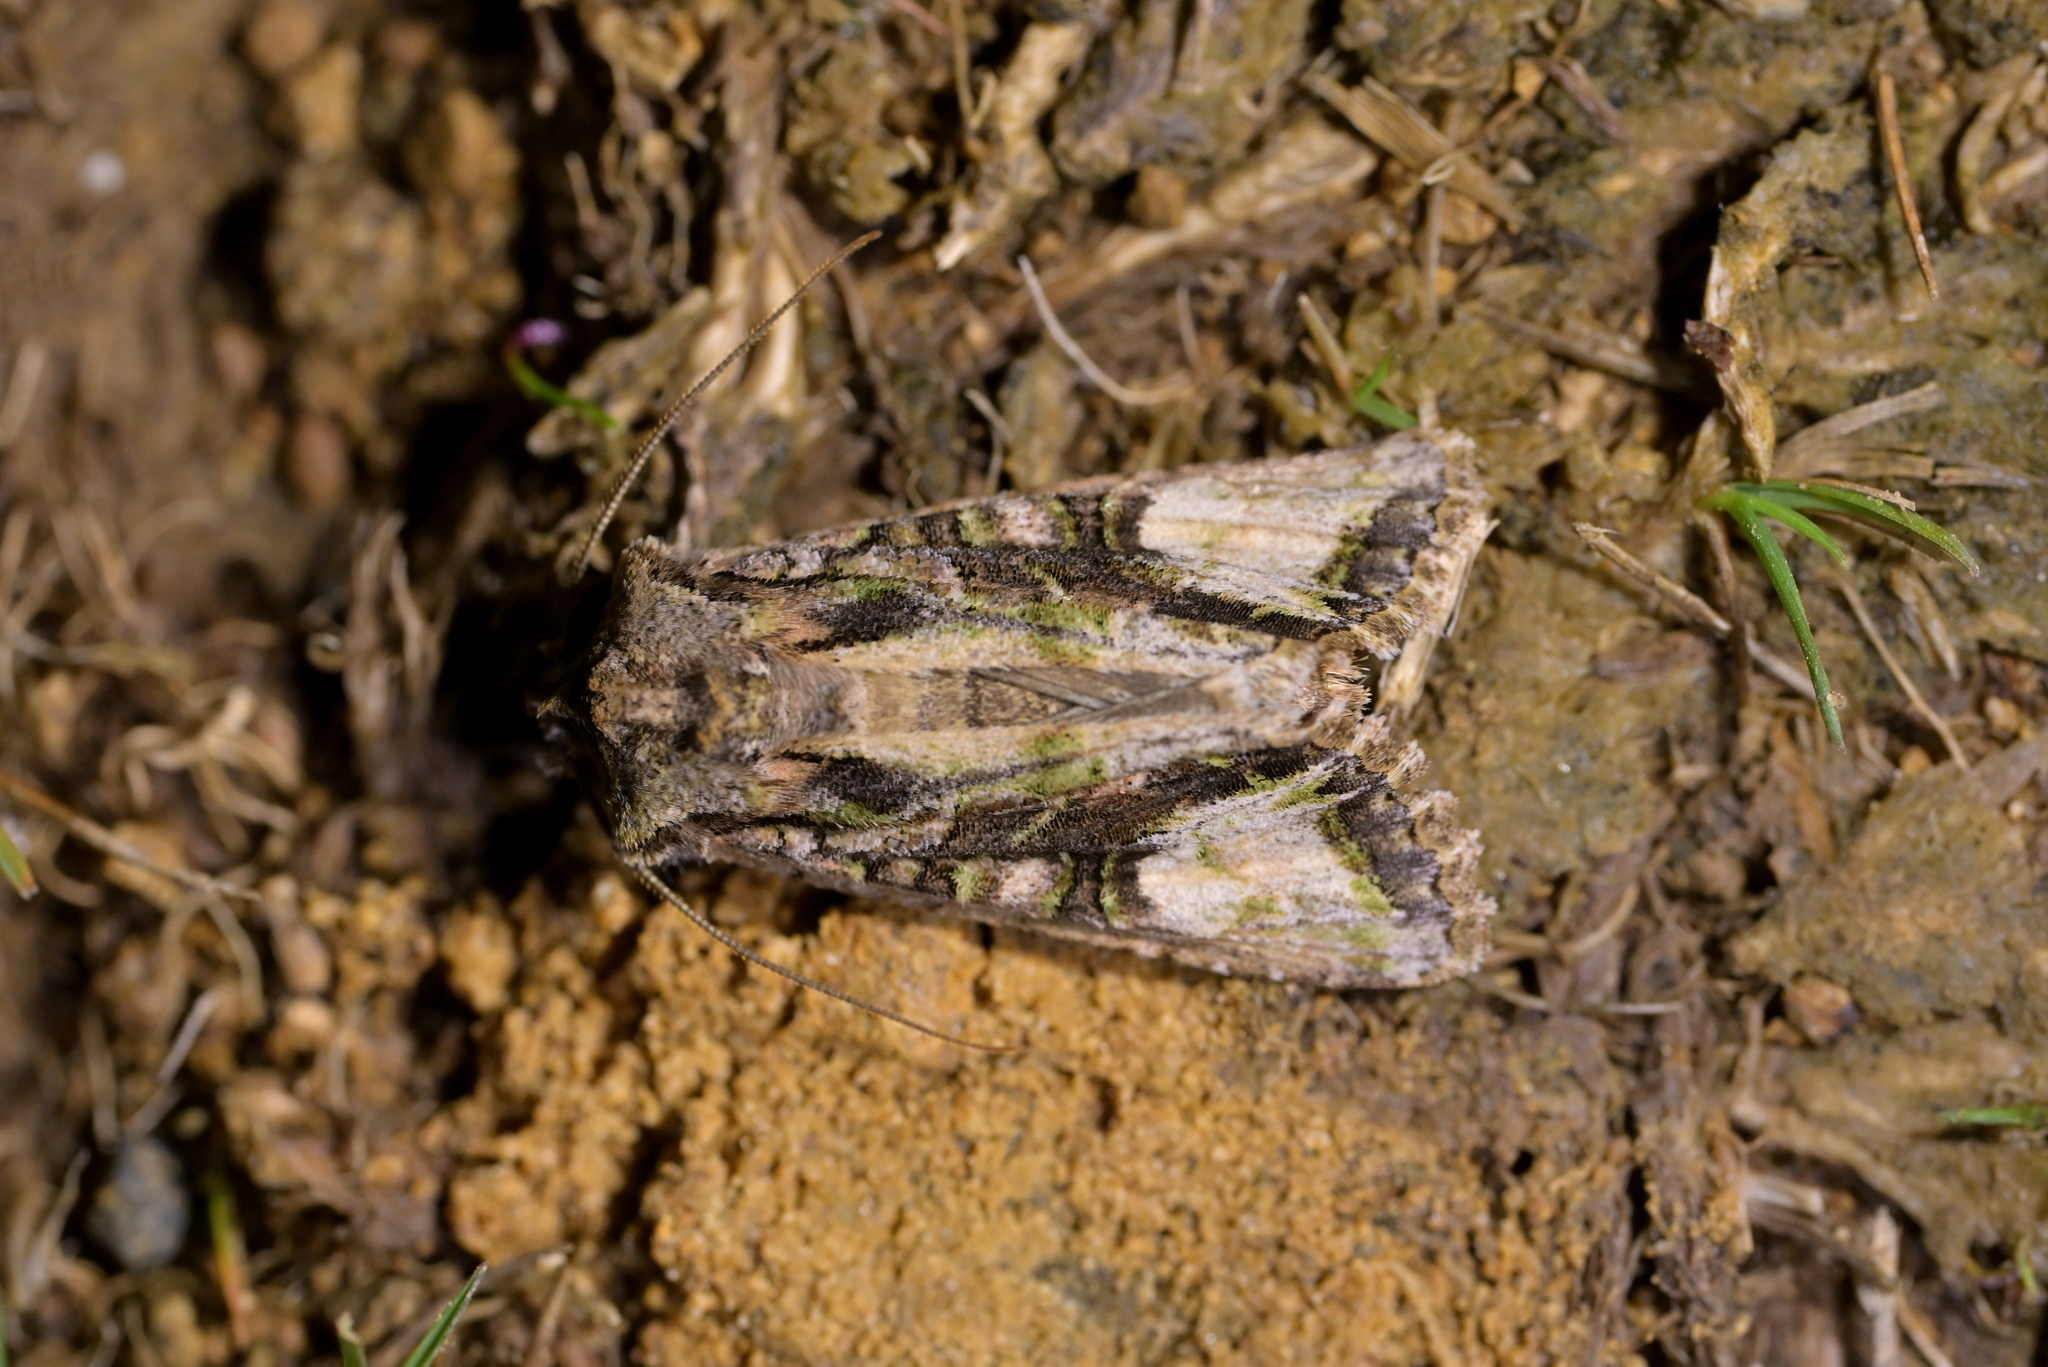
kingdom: Animalia
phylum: Arthropoda
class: Insecta
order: Lepidoptera
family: Noctuidae
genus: Ichneutica
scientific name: Ichneutica insignis
